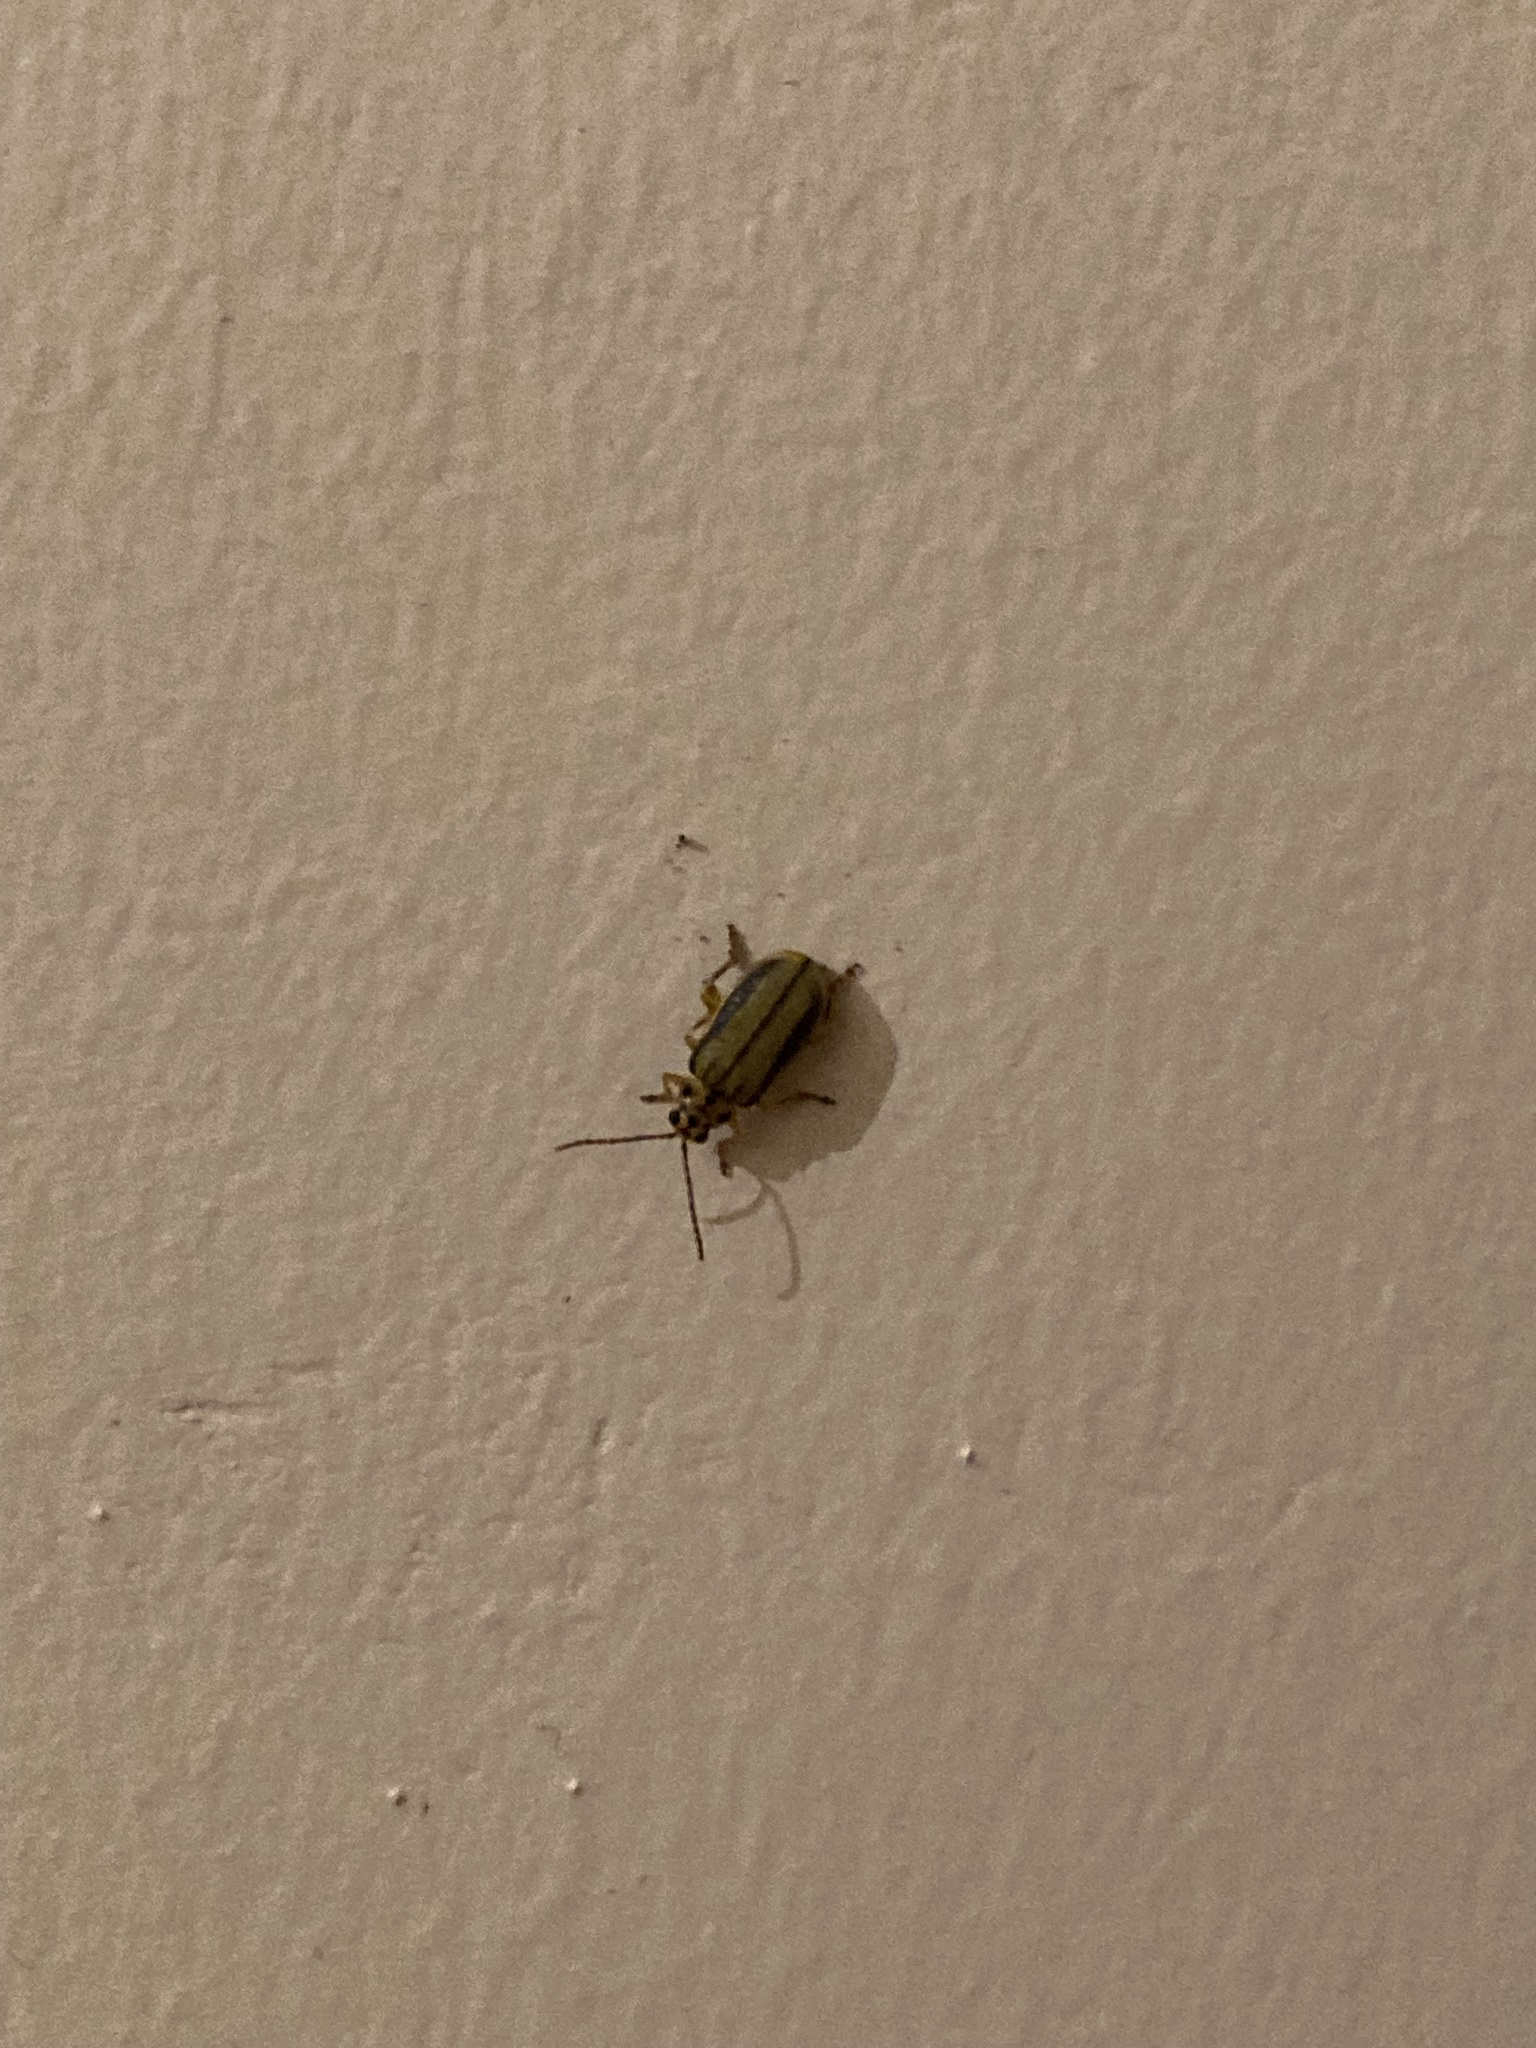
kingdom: Animalia
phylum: Arthropoda
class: Insecta
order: Coleoptera
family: Chrysomelidae
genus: Xanthogaleruca
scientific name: Xanthogaleruca luteola
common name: Elm leaf beetle
